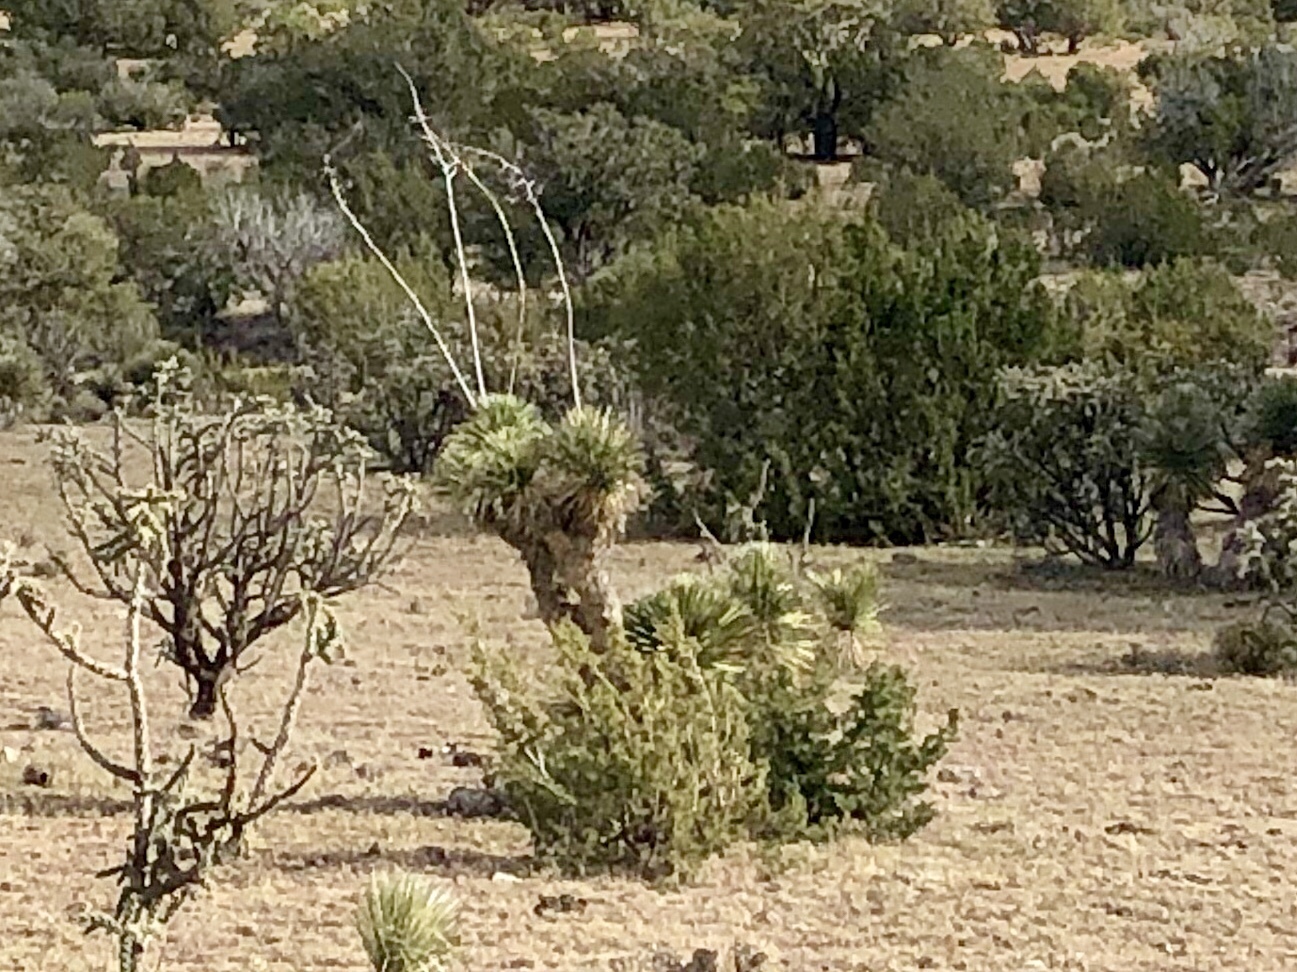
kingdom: Plantae
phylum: Tracheophyta
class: Liliopsida
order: Asparagales
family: Asparagaceae
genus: Yucca
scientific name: Yucca elata
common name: Palmella
